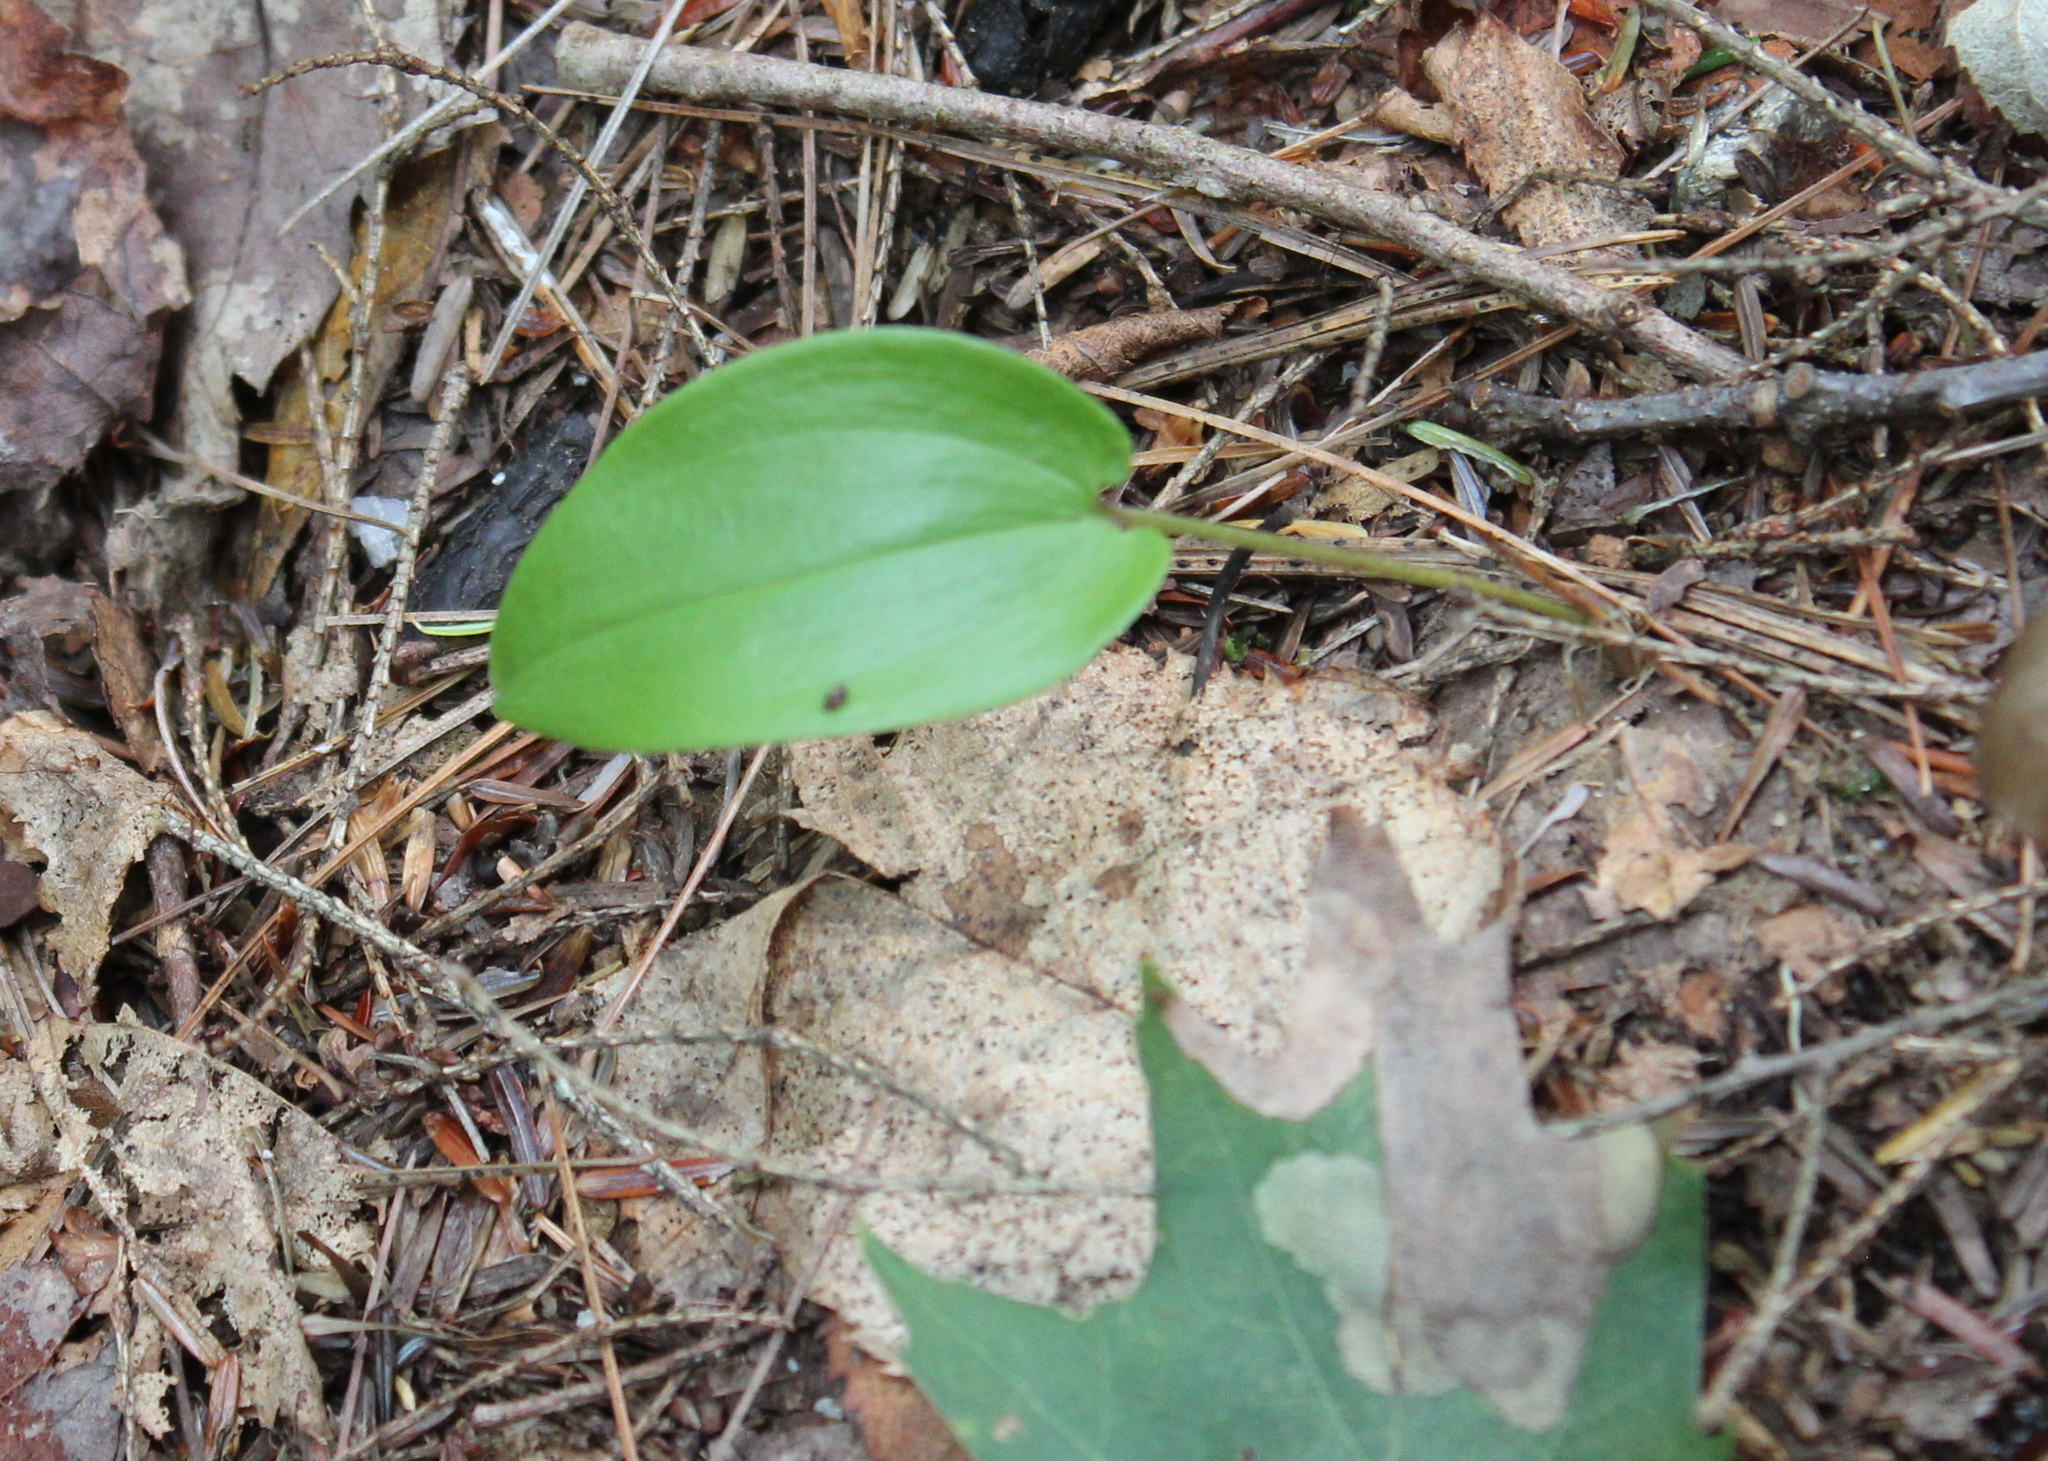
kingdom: Plantae
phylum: Tracheophyta
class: Liliopsida
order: Asparagales
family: Asparagaceae
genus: Maianthemum
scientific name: Maianthemum canadense
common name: False lily-of-the-valley
